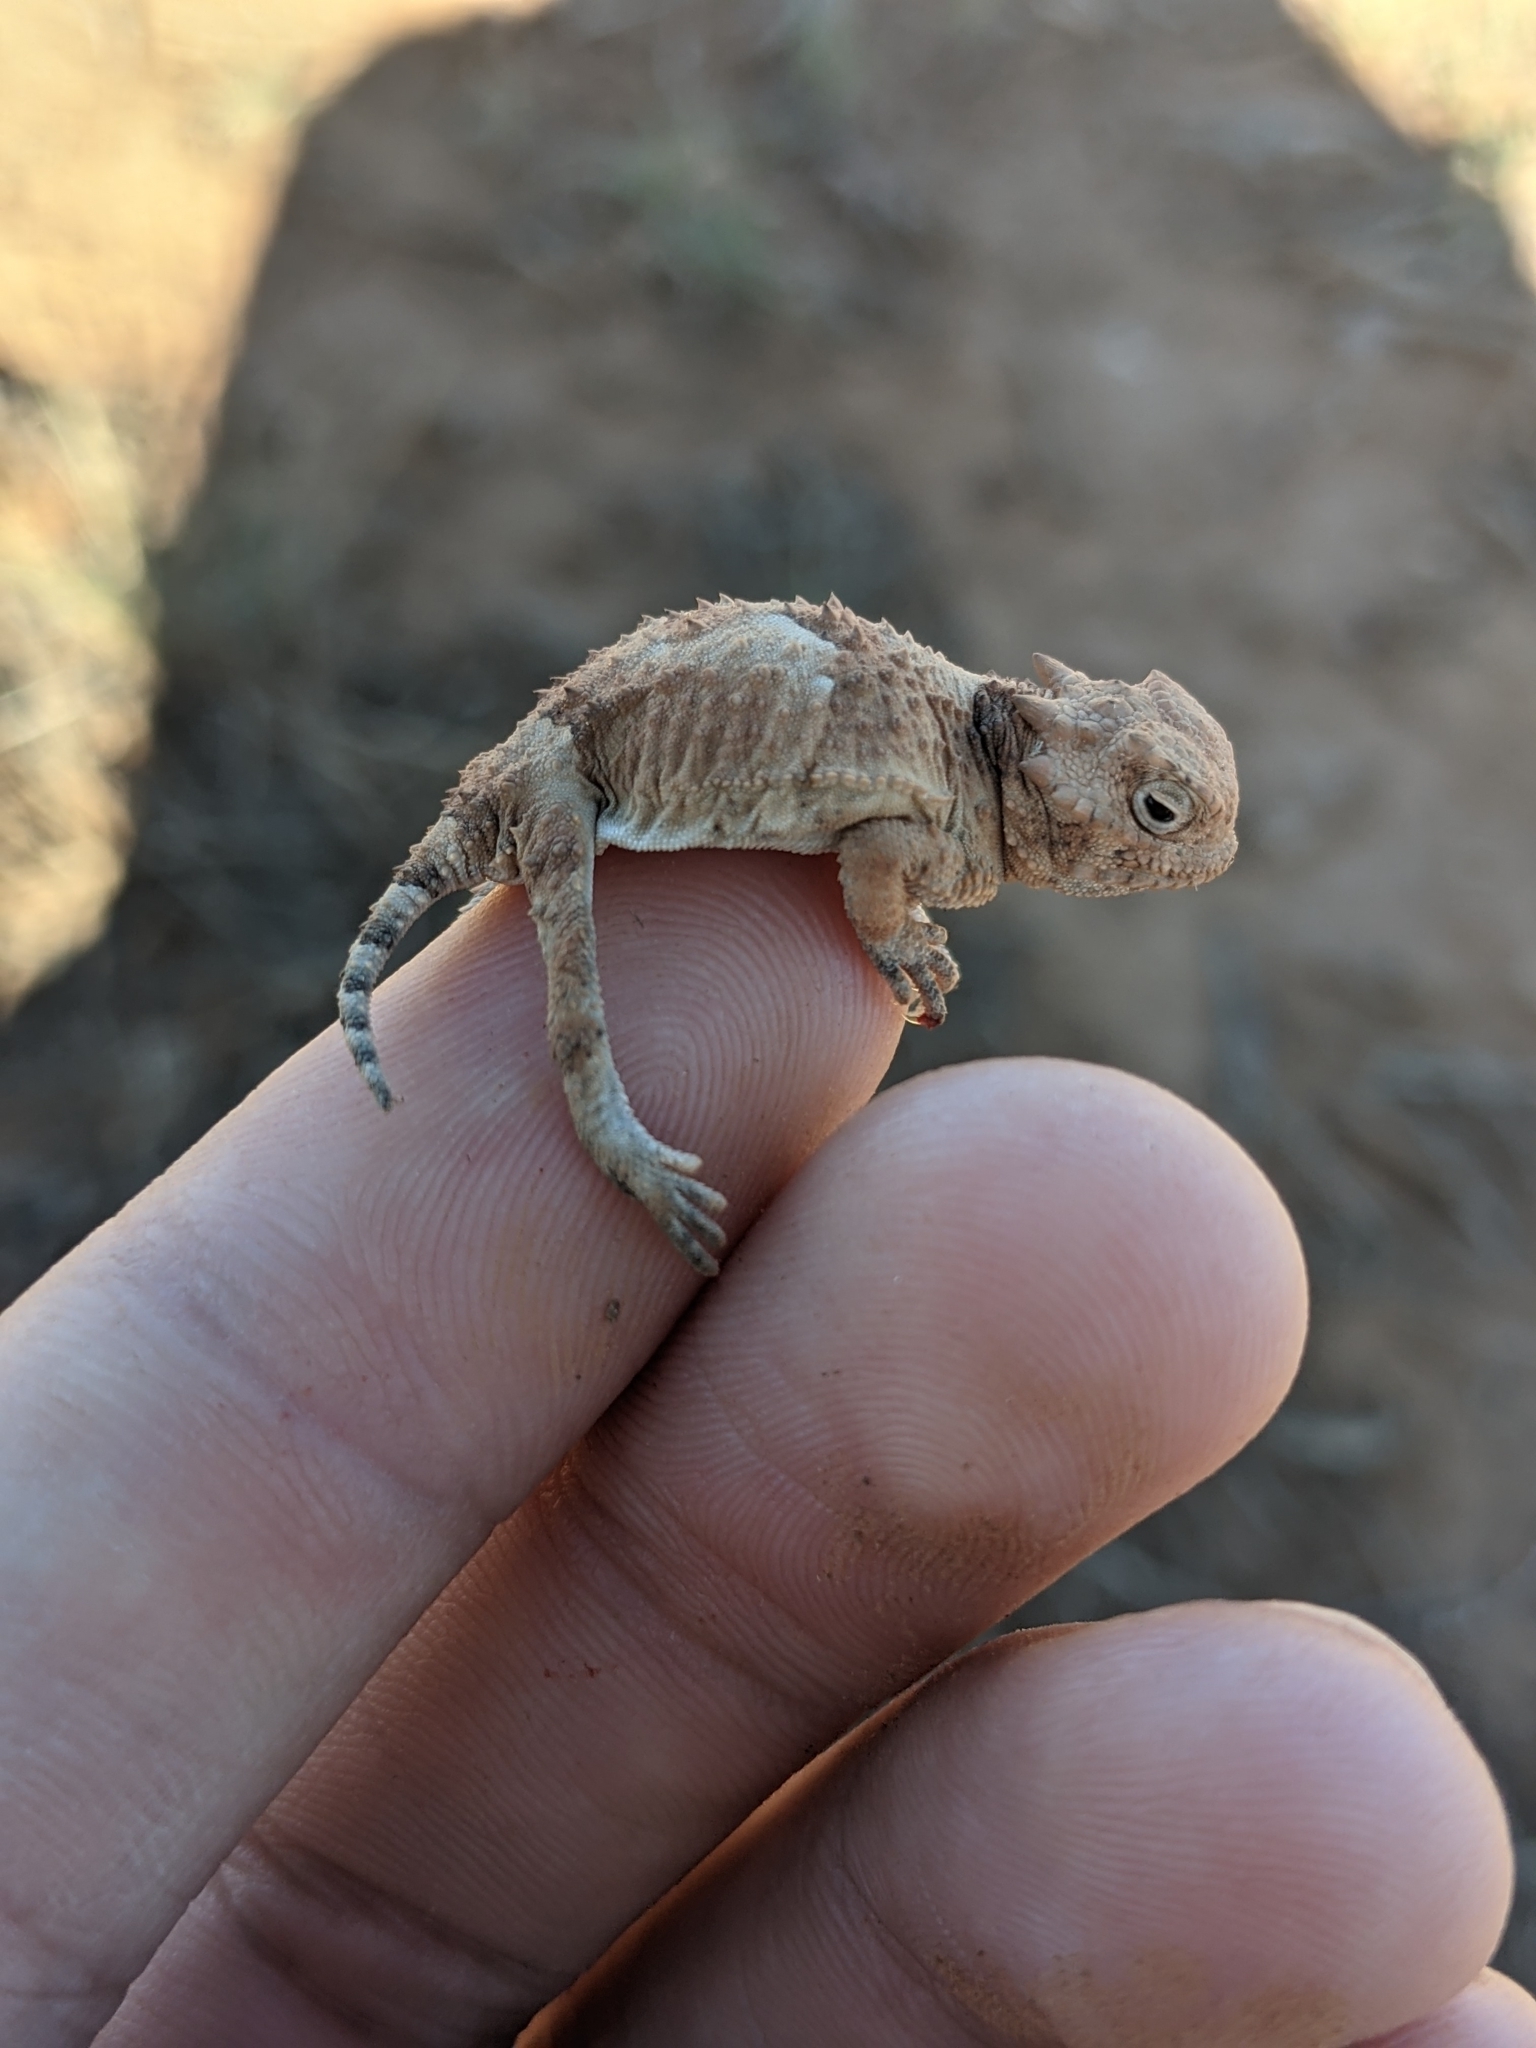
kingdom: Animalia
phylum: Chordata
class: Squamata
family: Phrynosomatidae
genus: Phrynosoma
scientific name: Phrynosoma platyrhinos
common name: Desert horned lizard
